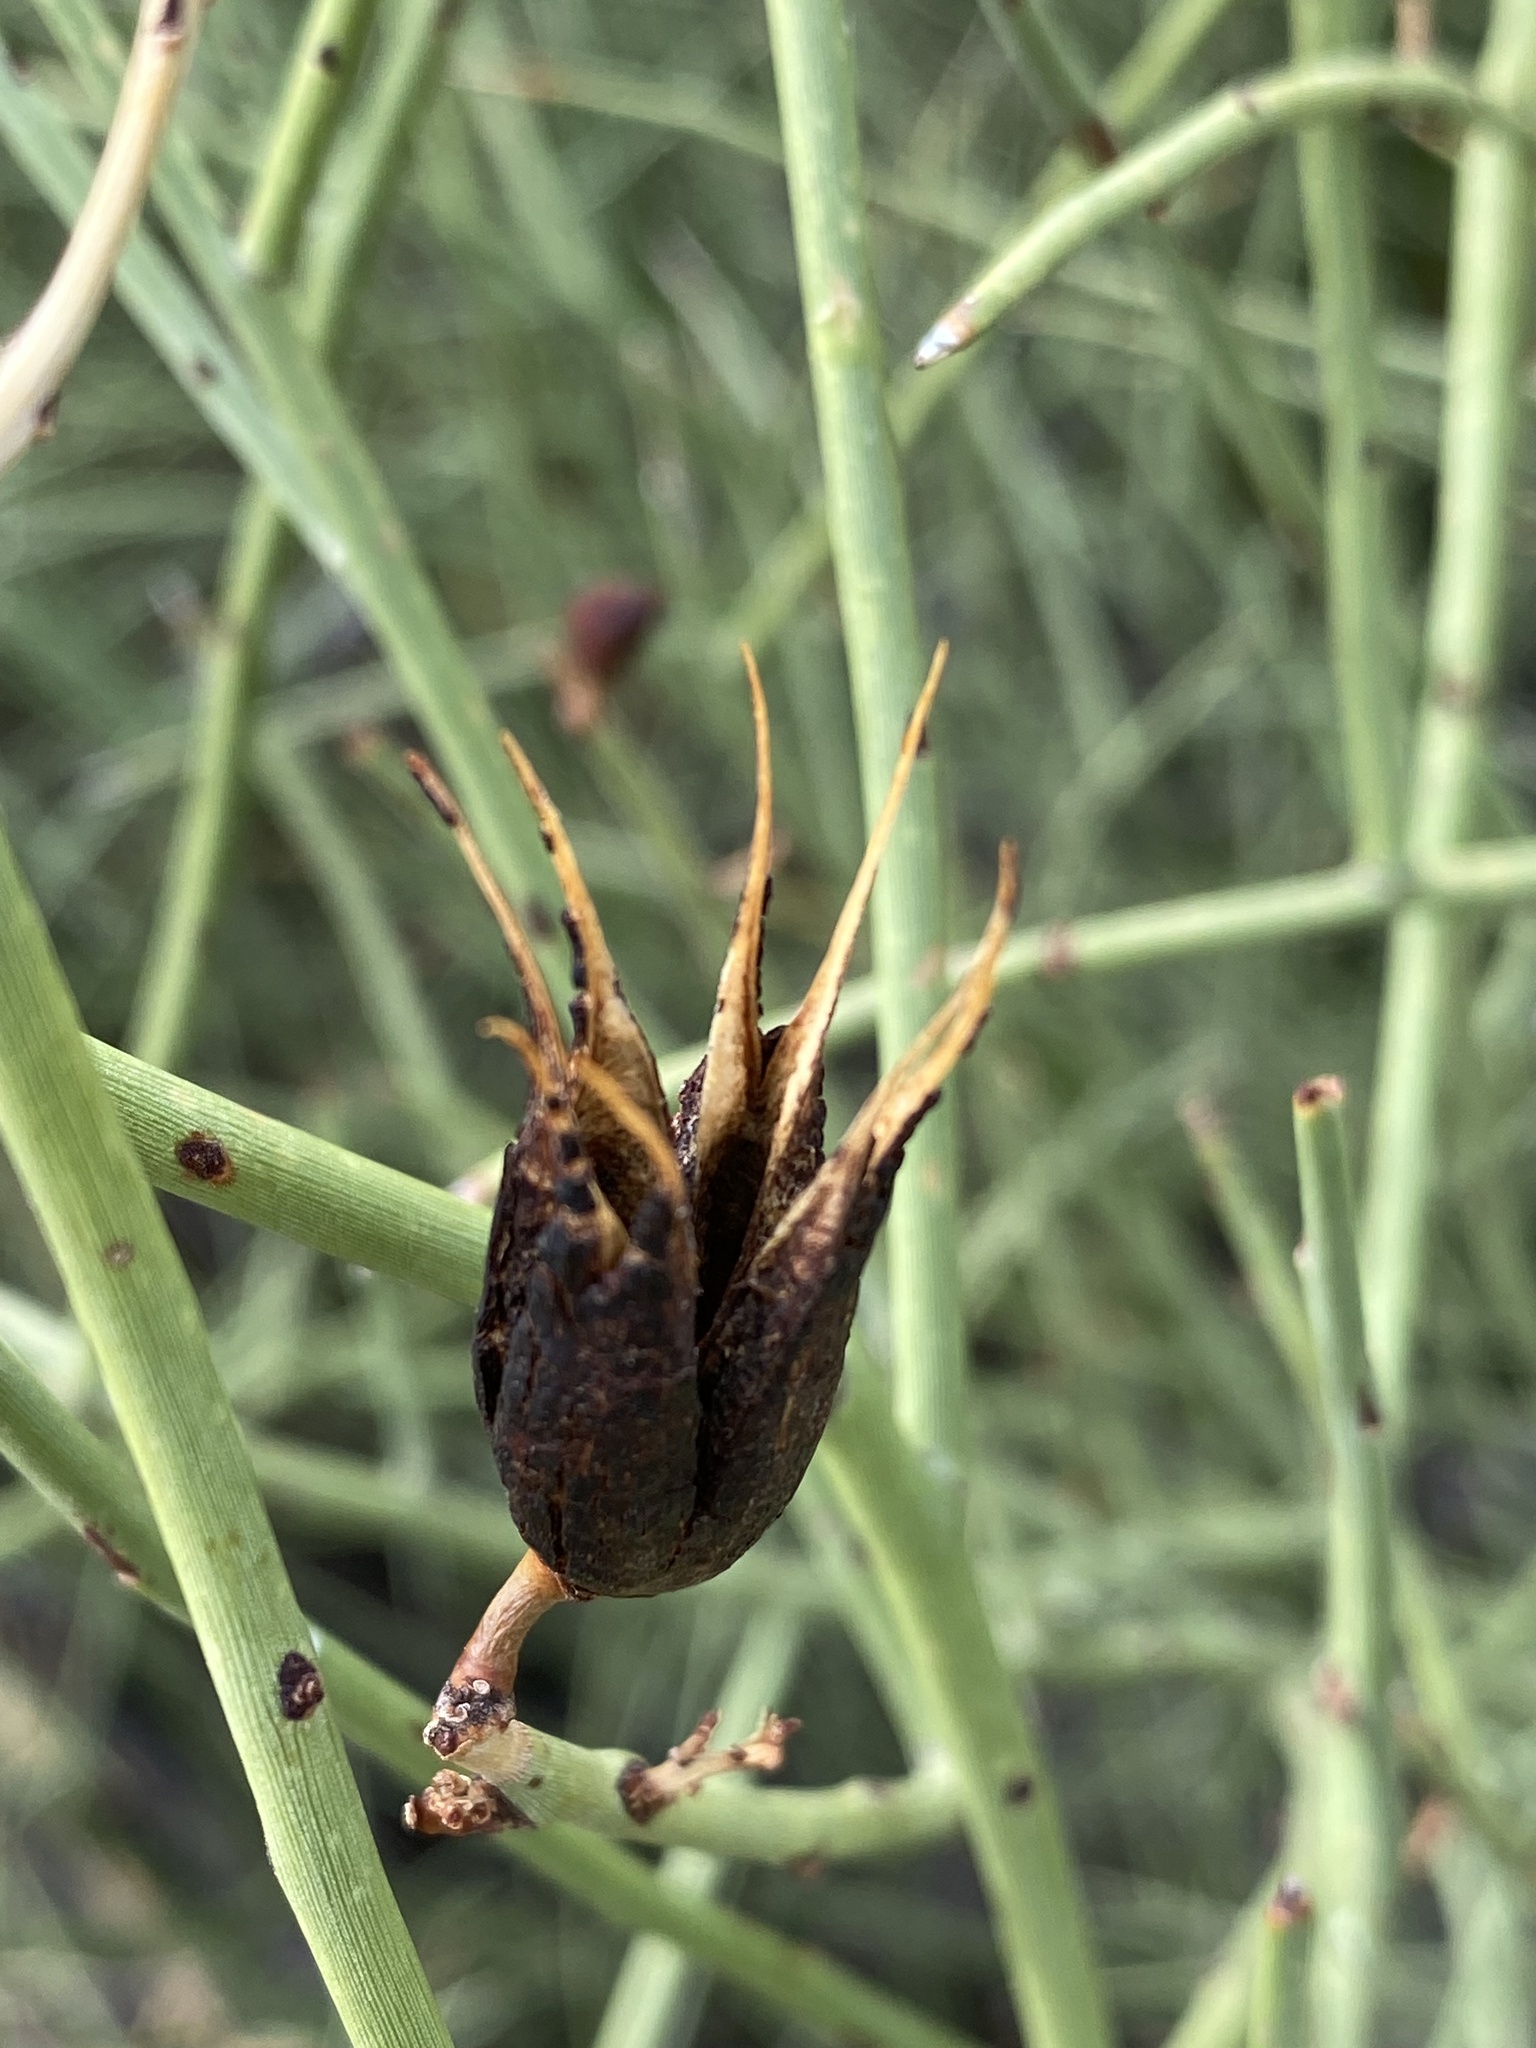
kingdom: Plantae
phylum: Tracheophyta
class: Magnoliopsida
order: Celastrales
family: Celastraceae
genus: Canotia
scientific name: Canotia holacantha
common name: Crucifixion thorns
